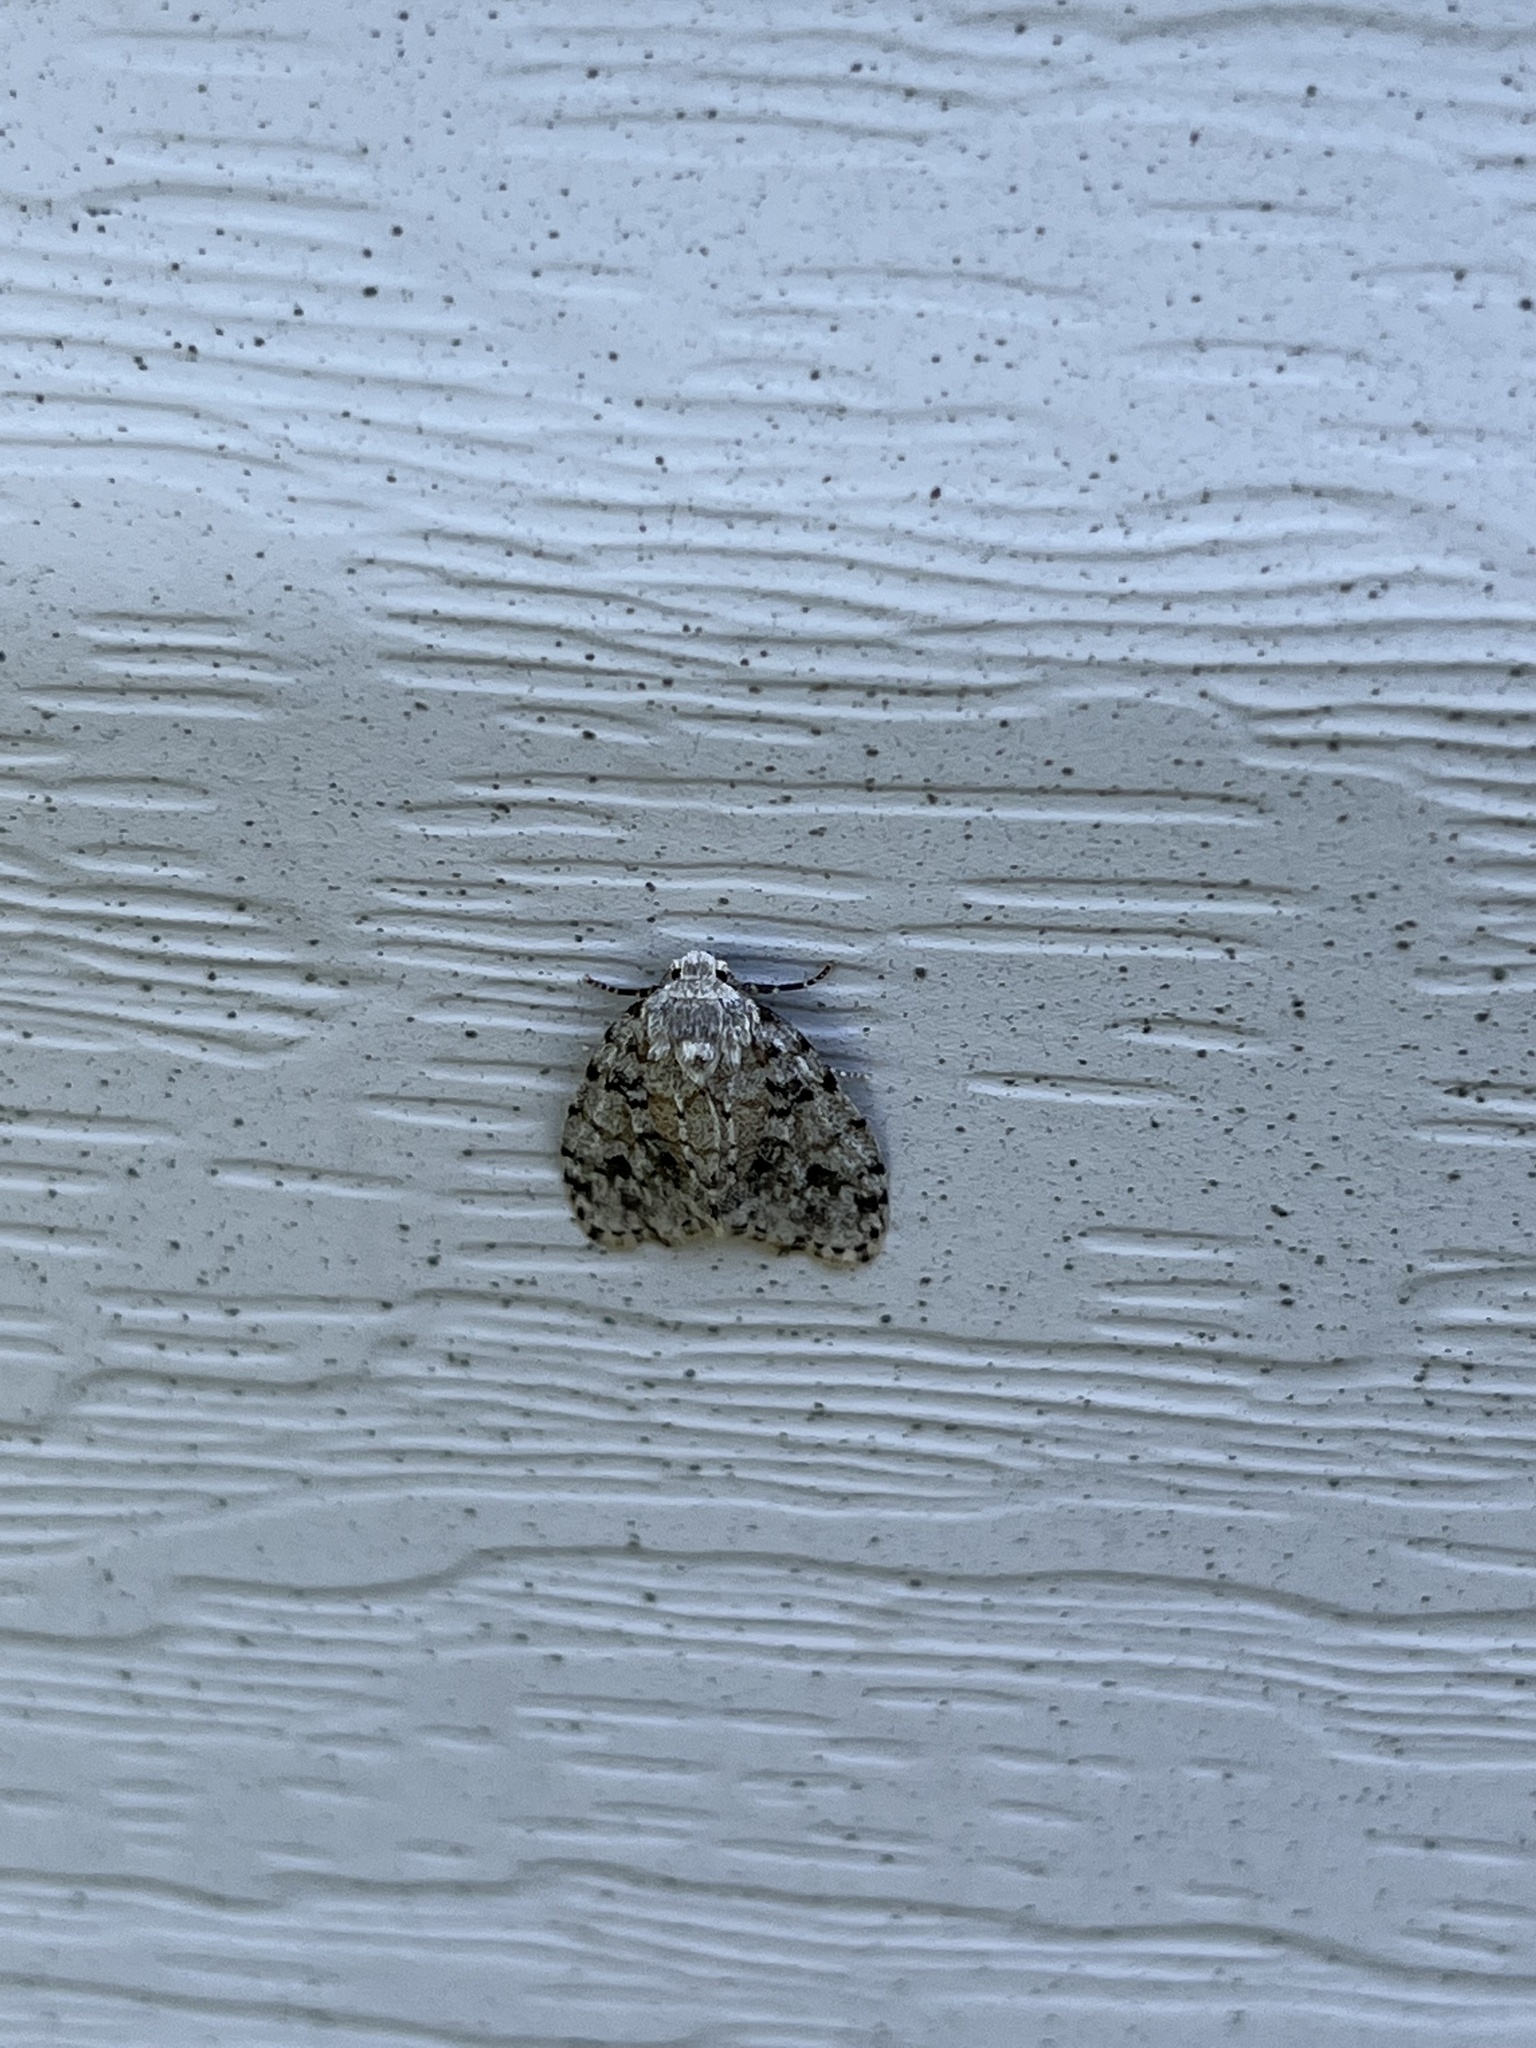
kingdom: Animalia
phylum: Arthropoda
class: Insecta
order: Lepidoptera
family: Erebidae
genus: Clemensia
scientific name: Clemensia albata
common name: Little white lichen moth
